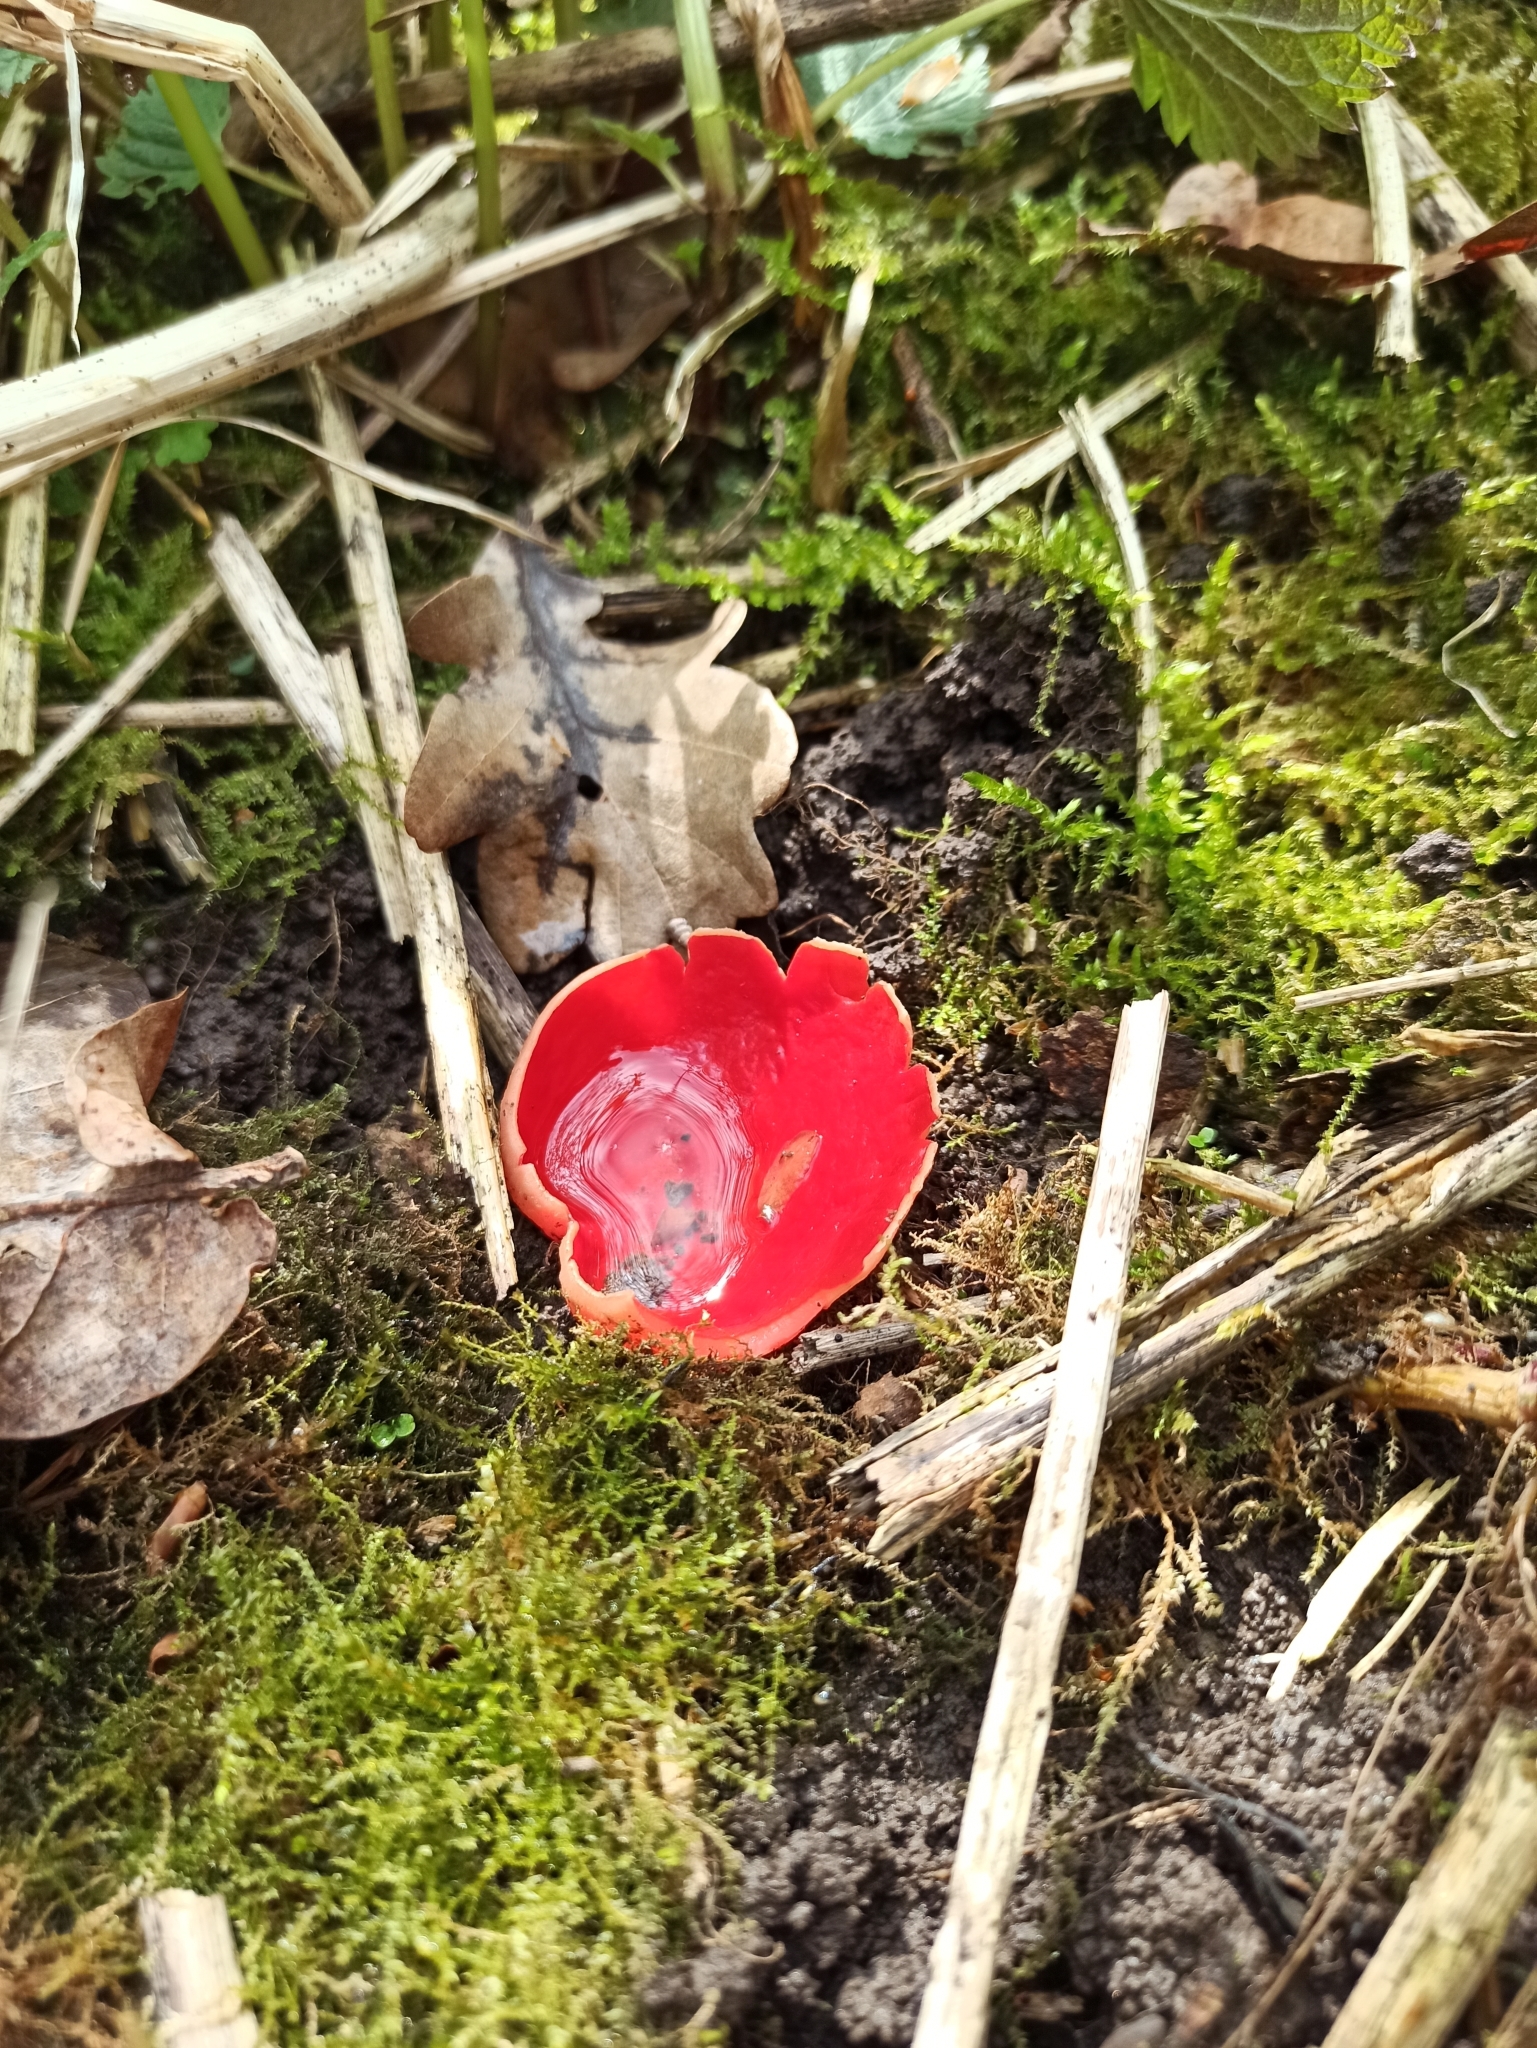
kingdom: Fungi
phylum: Ascomycota
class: Pezizomycetes
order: Pezizales
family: Sarcoscyphaceae
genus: Sarcoscypha
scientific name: Sarcoscypha
